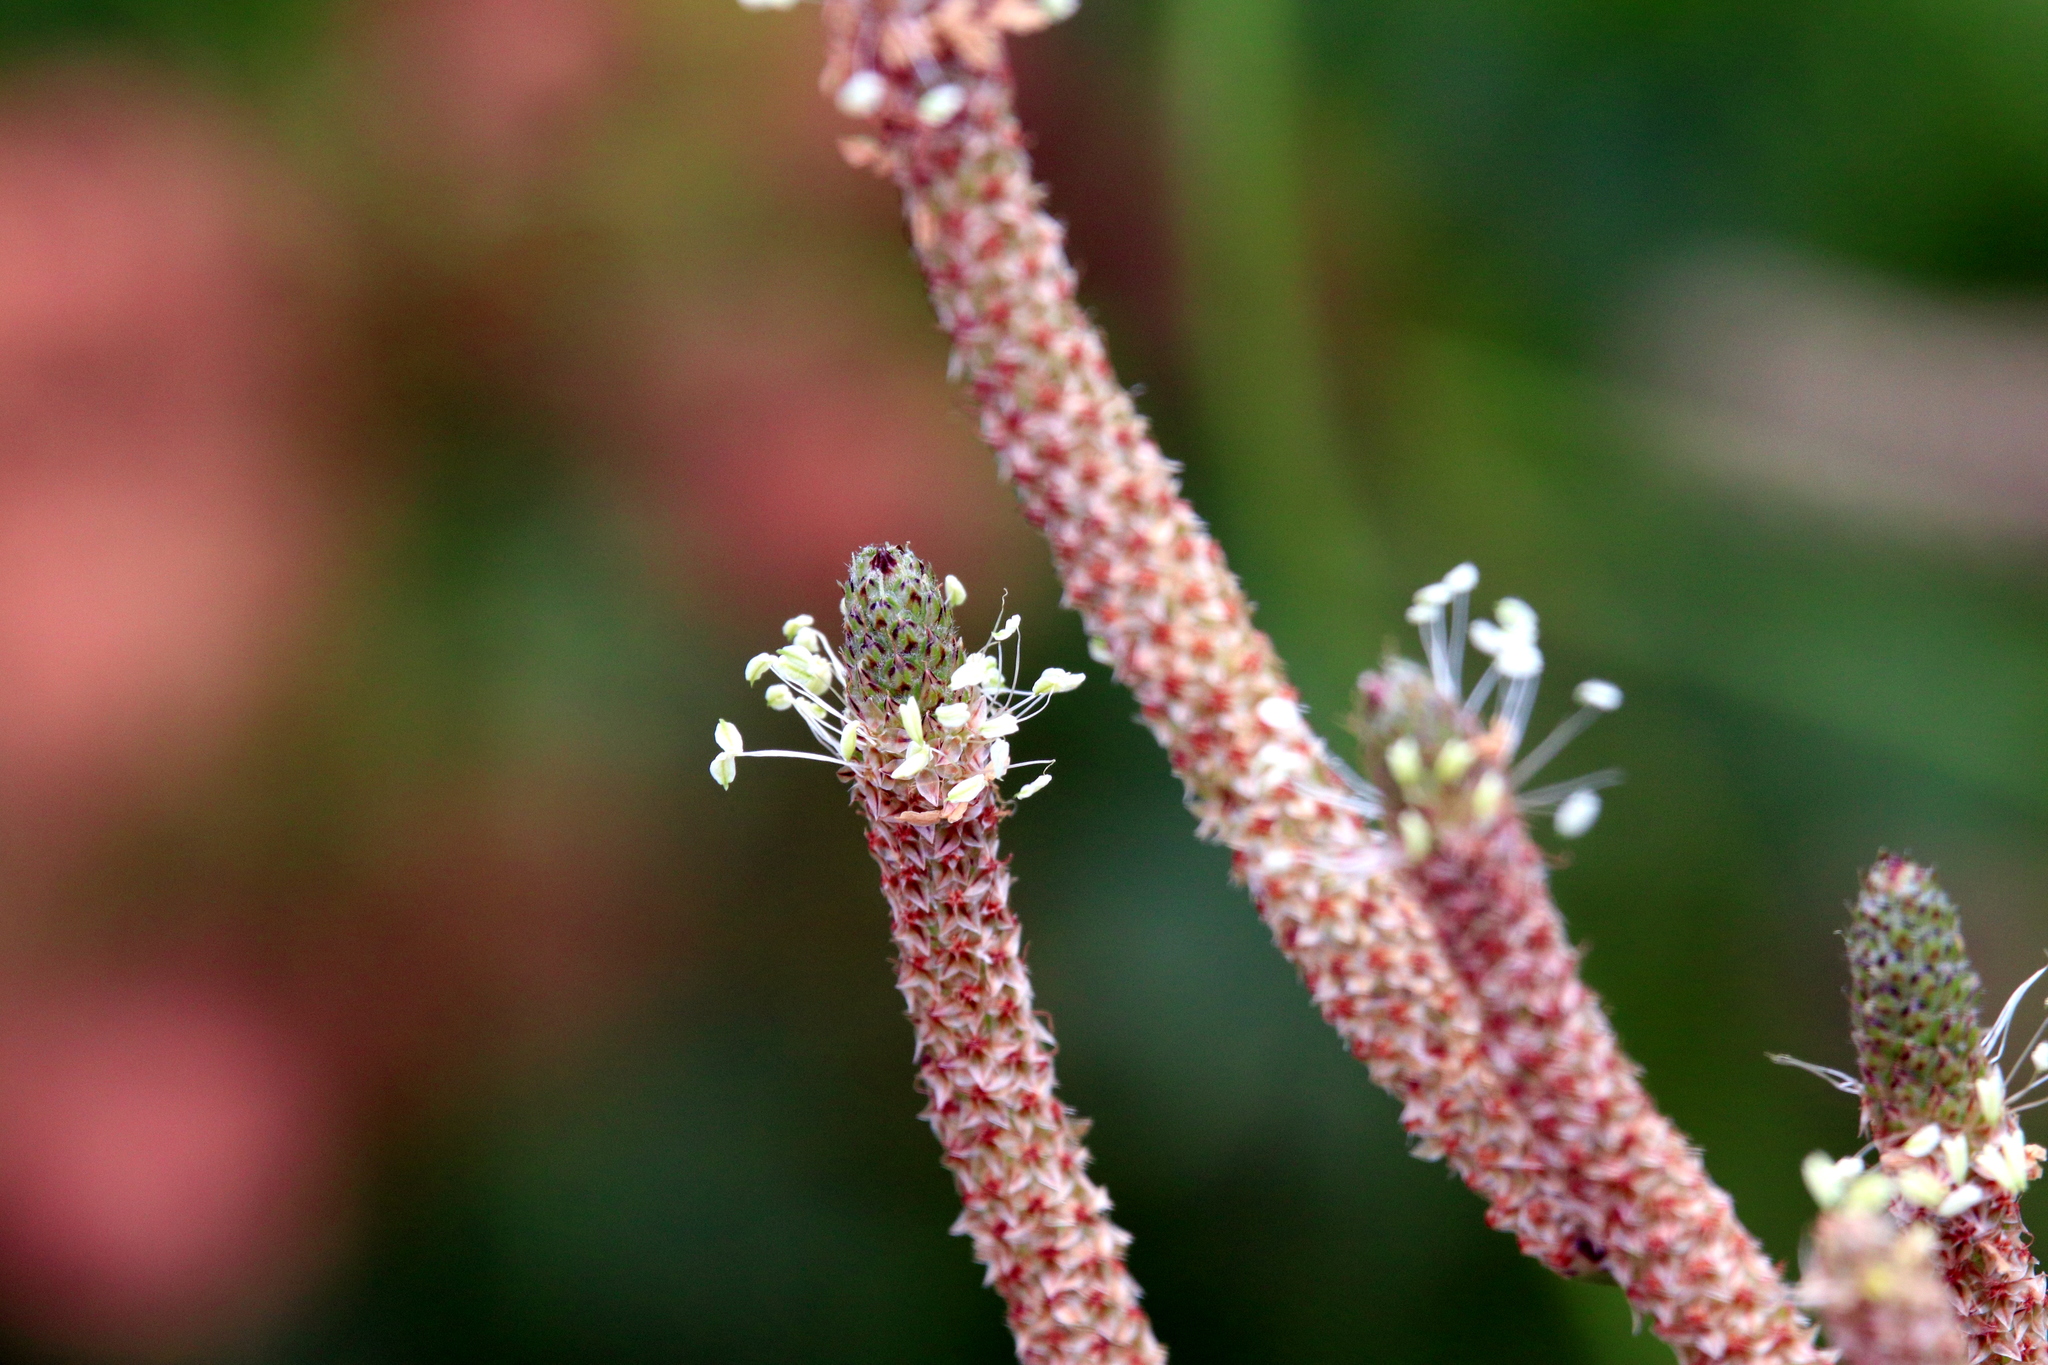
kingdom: Plantae
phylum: Tracheophyta
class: Magnoliopsida
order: Lamiales
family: Plantaginaceae
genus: Plantago
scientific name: Plantago lanceolata
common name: Ribwort plantain
